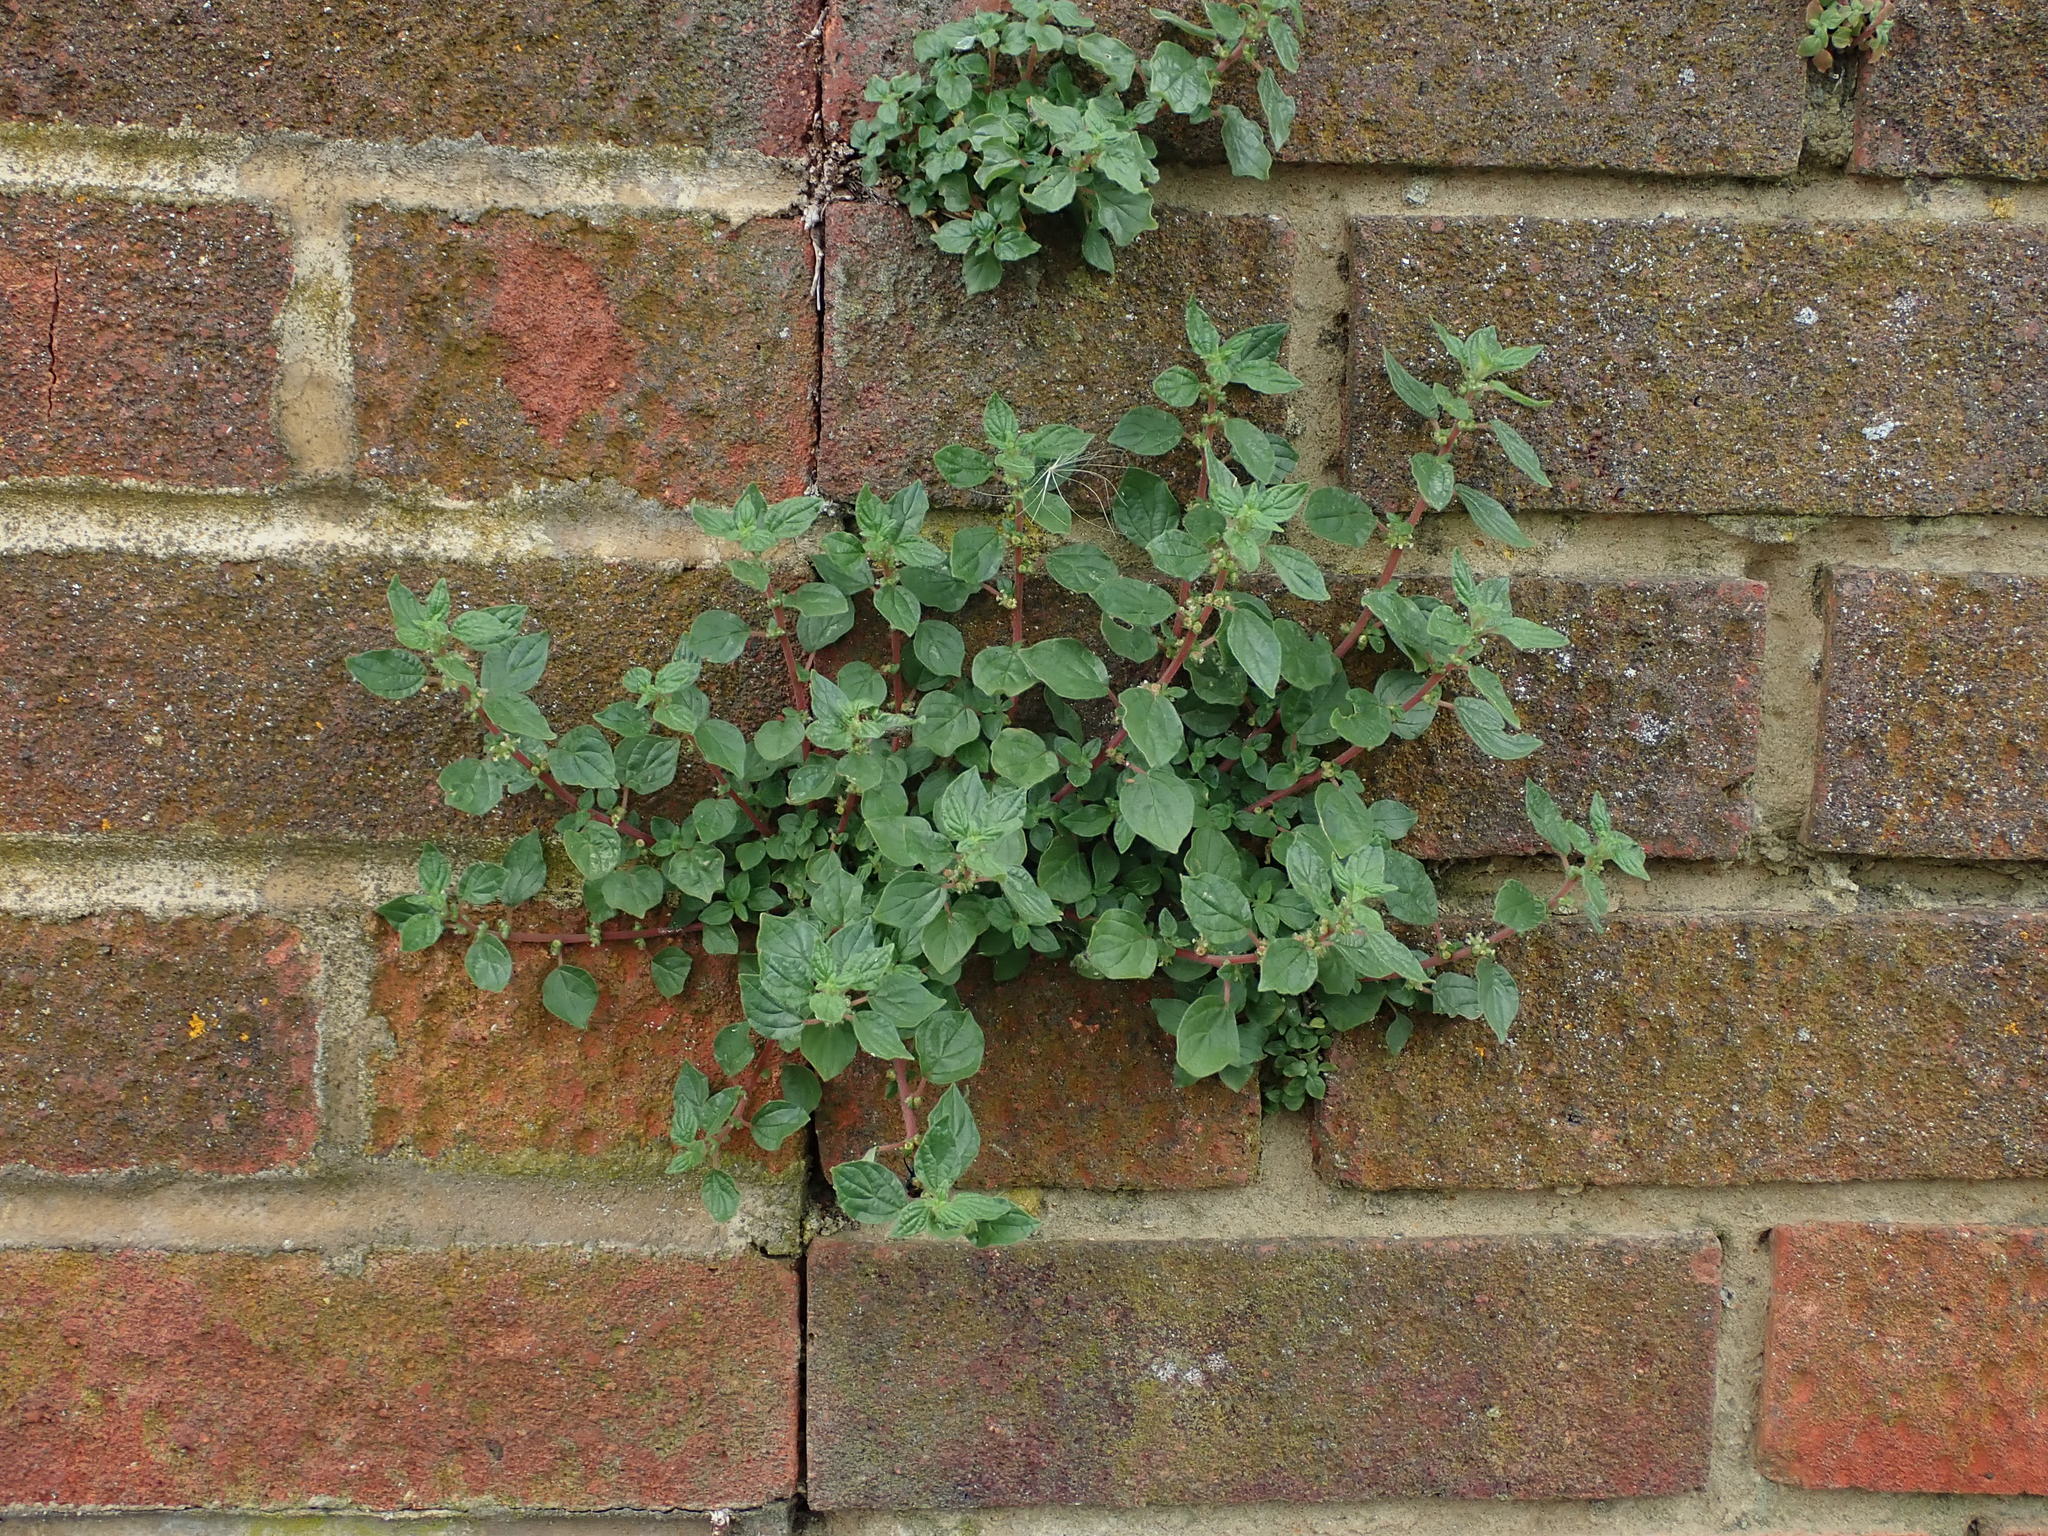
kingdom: Plantae
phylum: Tracheophyta
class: Magnoliopsida
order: Rosales
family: Urticaceae
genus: Parietaria
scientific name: Parietaria judaica
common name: Pellitory-of-the-wall
